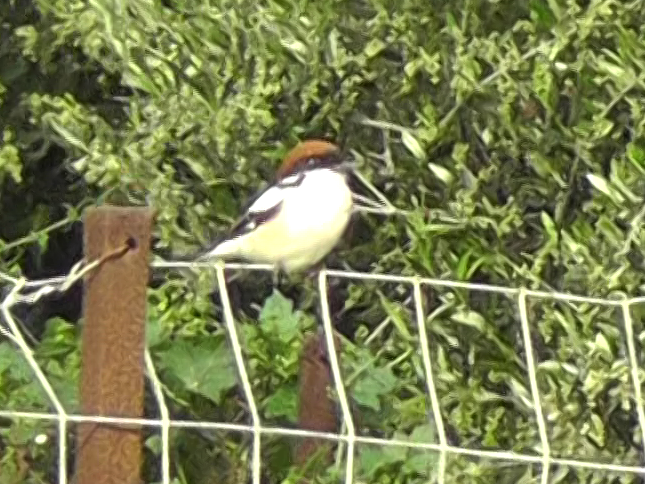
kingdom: Animalia
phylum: Chordata
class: Aves
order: Passeriformes
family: Laniidae
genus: Lanius
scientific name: Lanius senator
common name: Woodchat shrike
